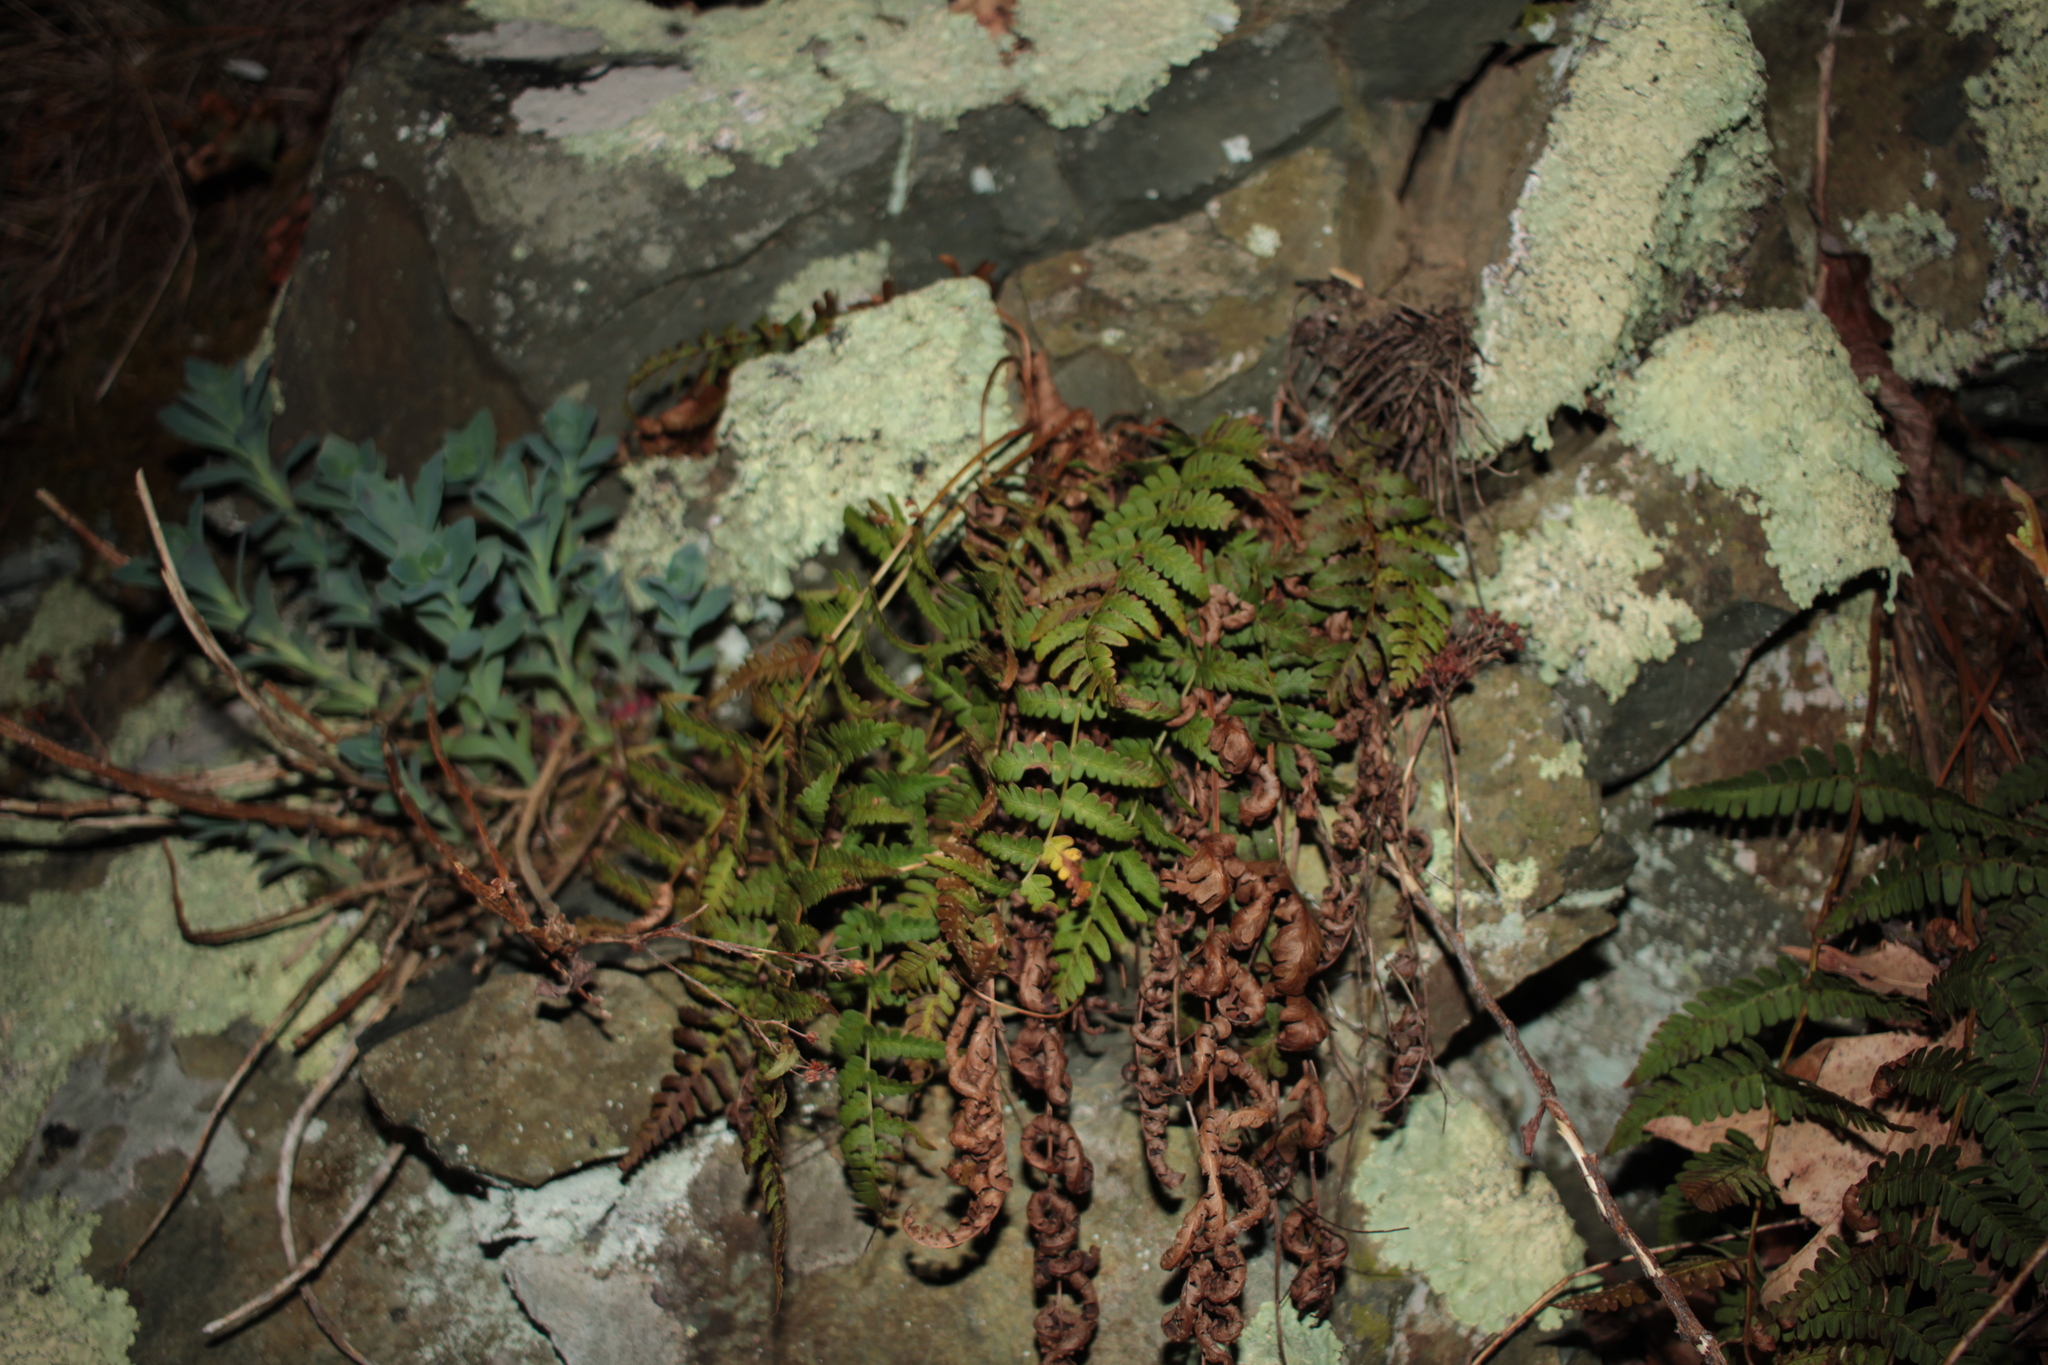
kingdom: Plantae
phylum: Tracheophyta
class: Polypodiopsida
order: Polypodiales
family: Dryopteridaceae
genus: Dryopteris
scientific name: Dryopteris marginalis
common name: Marginal wood fern
